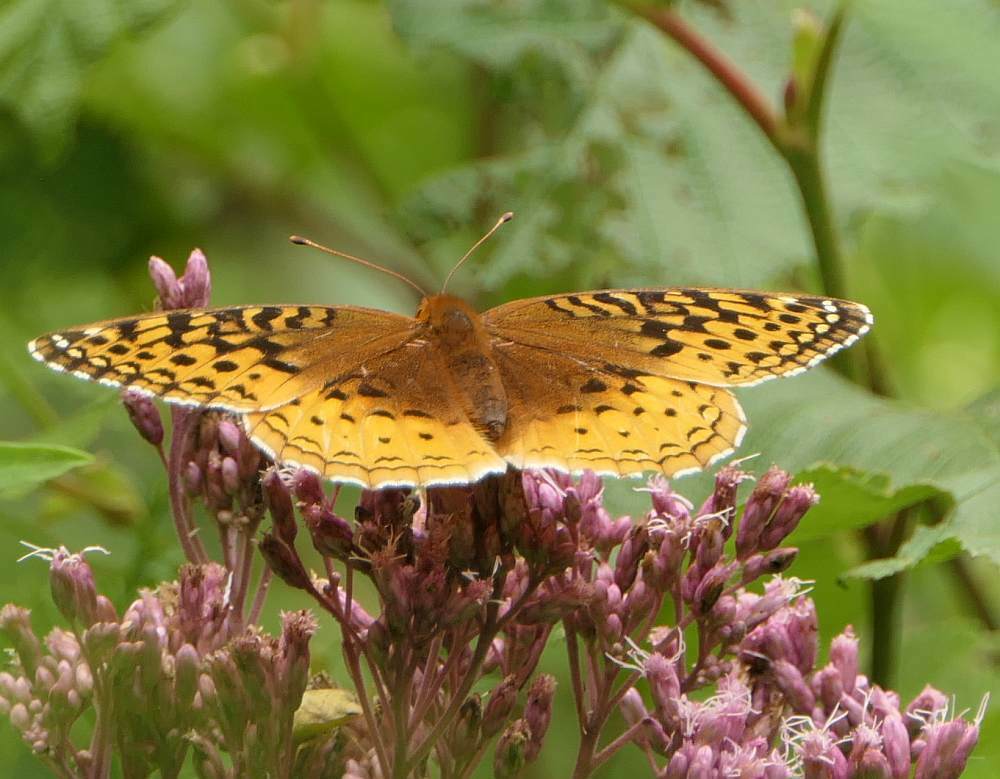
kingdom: Animalia
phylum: Arthropoda
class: Insecta
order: Lepidoptera
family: Nymphalidae
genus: Speyeria
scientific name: Speyeria cybele
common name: Great spangled fritillary
